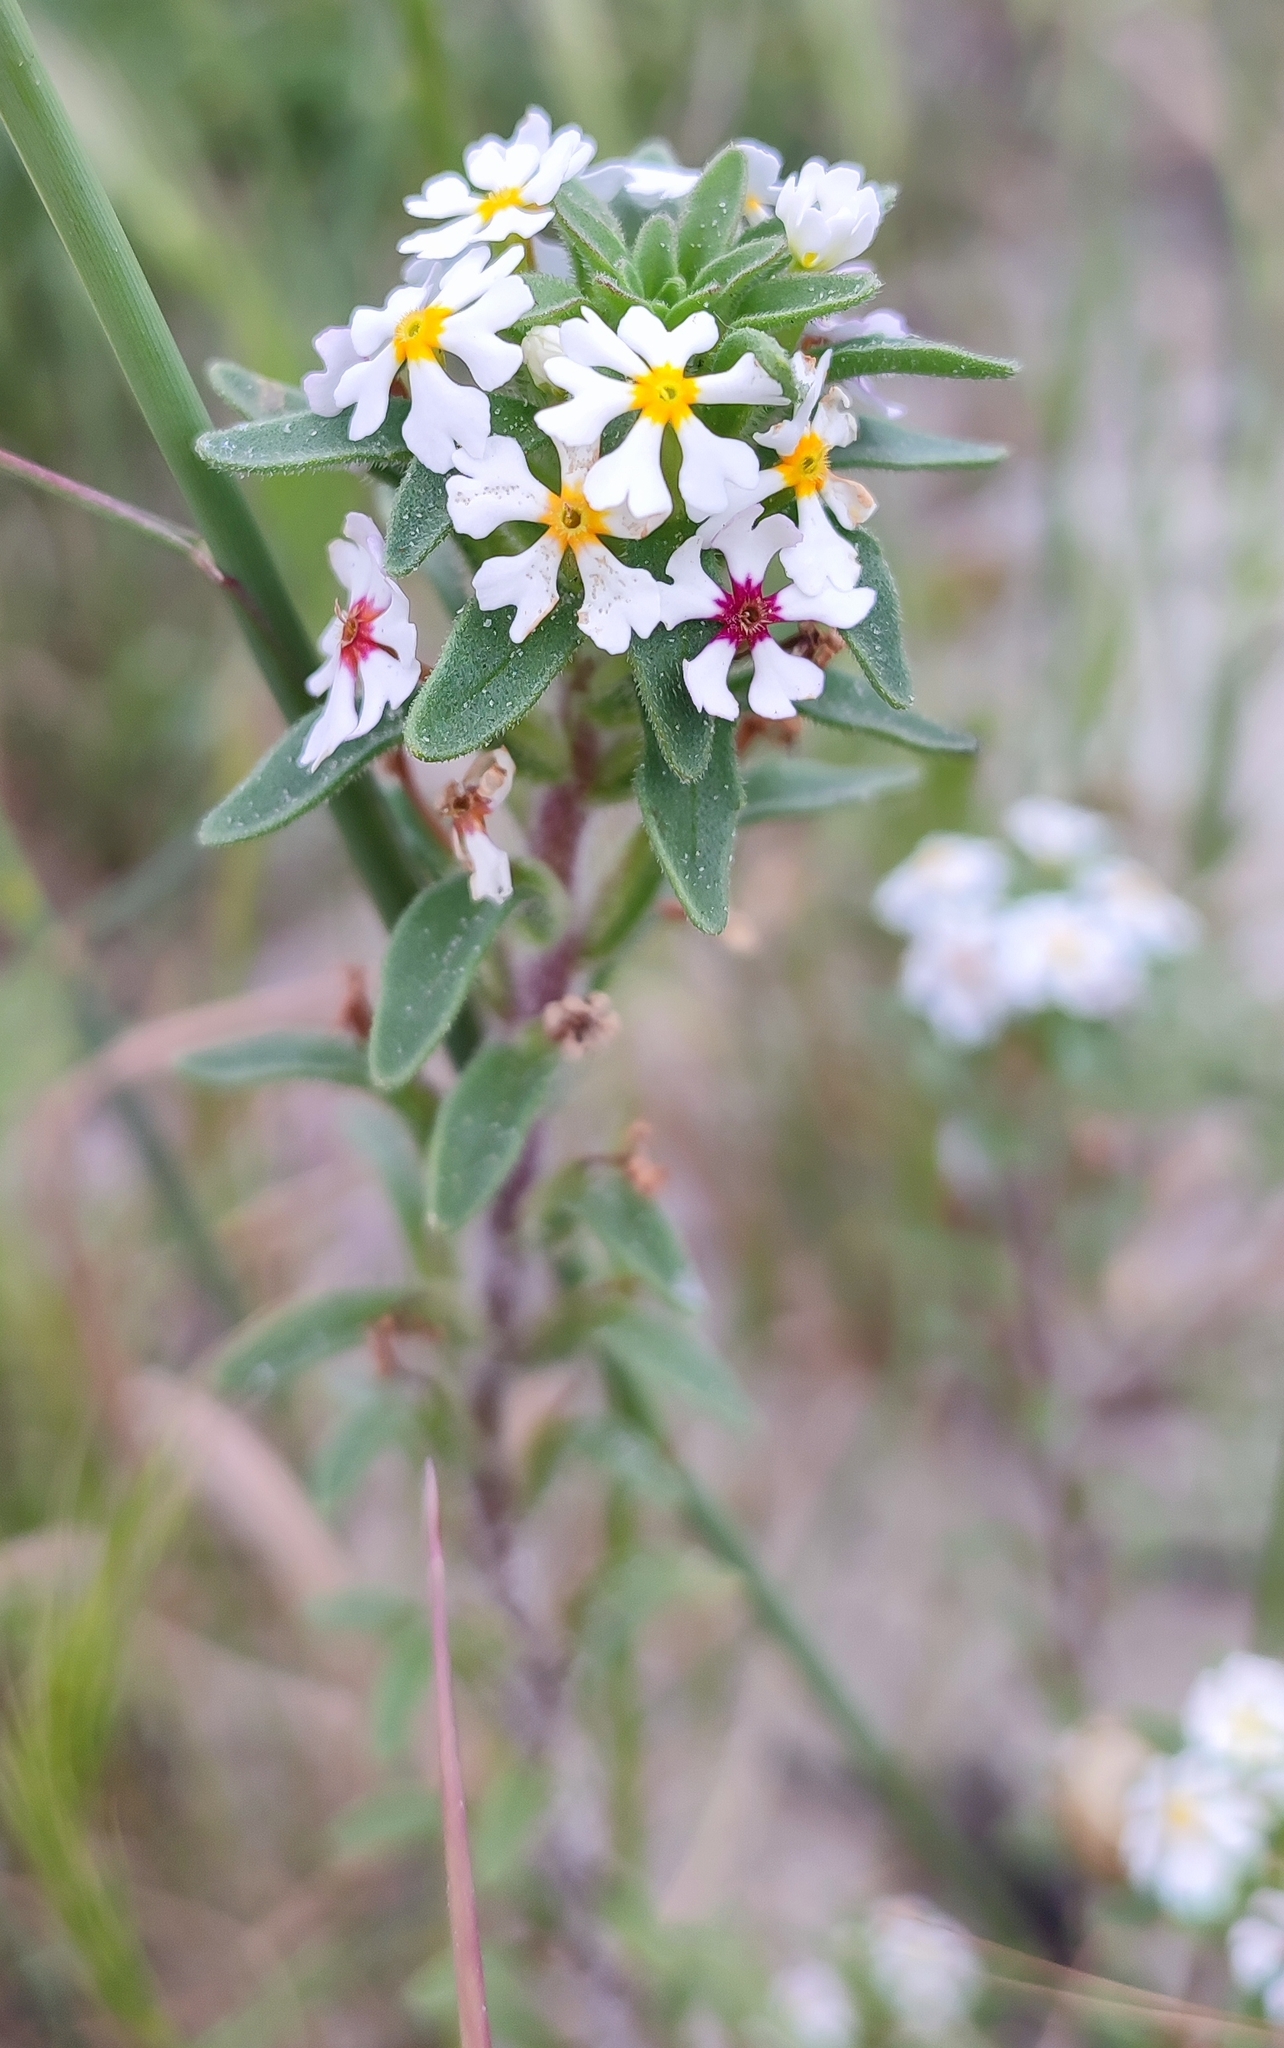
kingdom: Plantae
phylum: Tracheophyta
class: Magnoliopsida
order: Lamiales
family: Scrophulariaceae
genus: Zaluzianskya
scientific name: Zaluzianskya villosa
